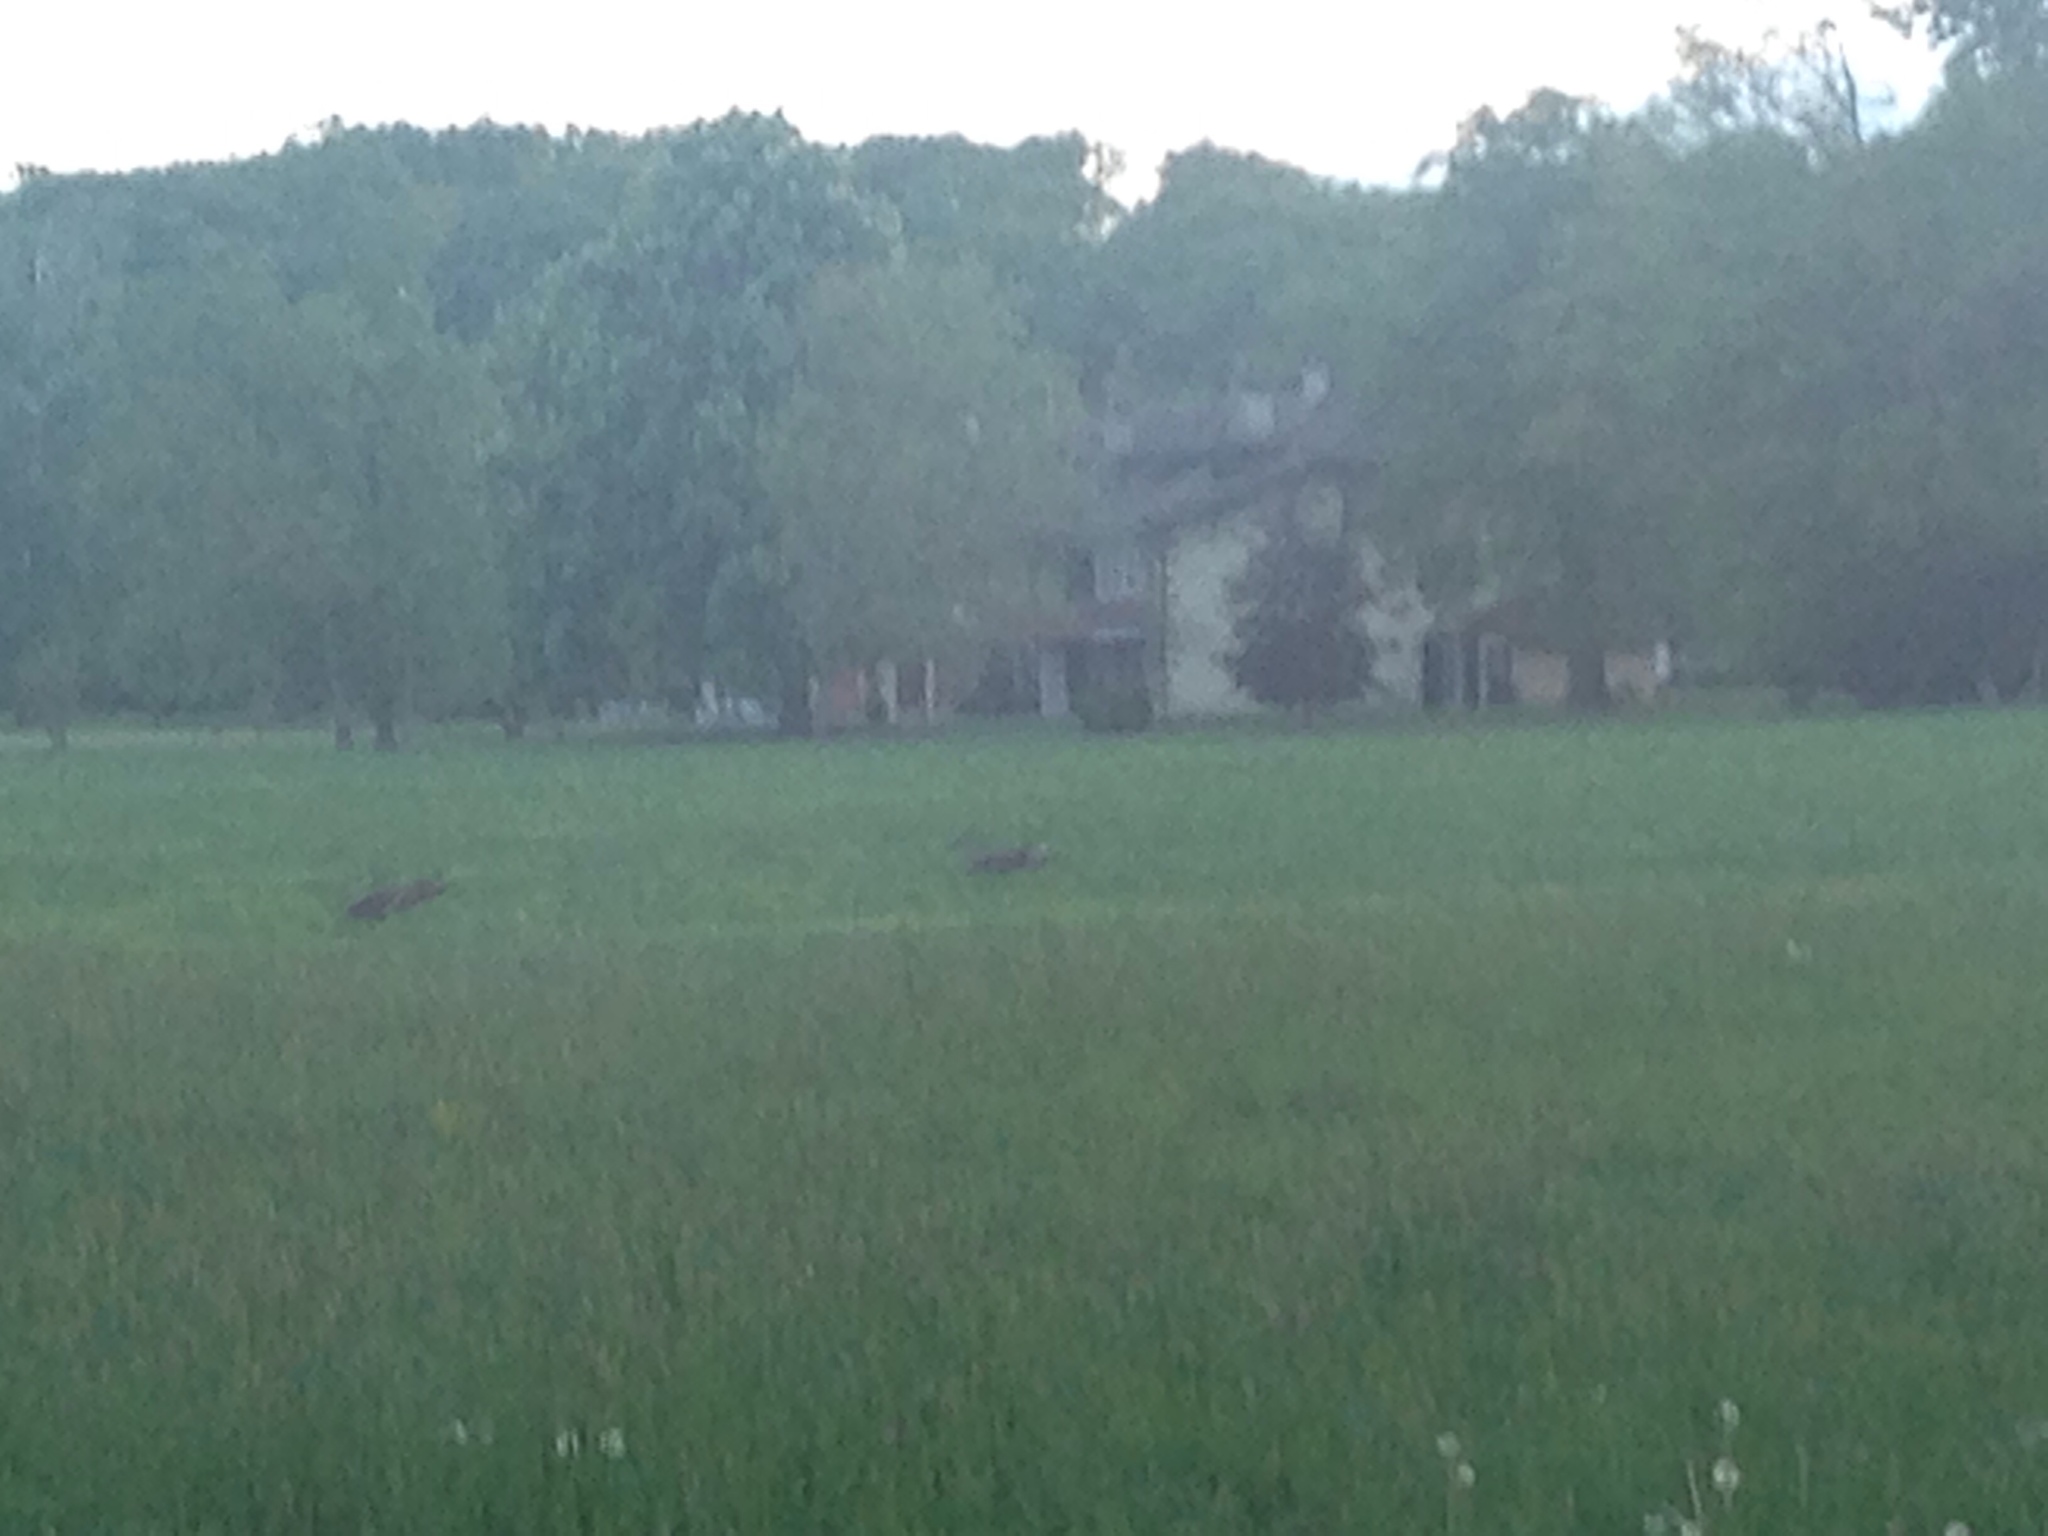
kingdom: Animalia
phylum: Chordata
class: Mammalia
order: Artiodactyla
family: Cervidae
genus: Capreolus
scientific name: Capreolus capreolus
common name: Western roe deer
